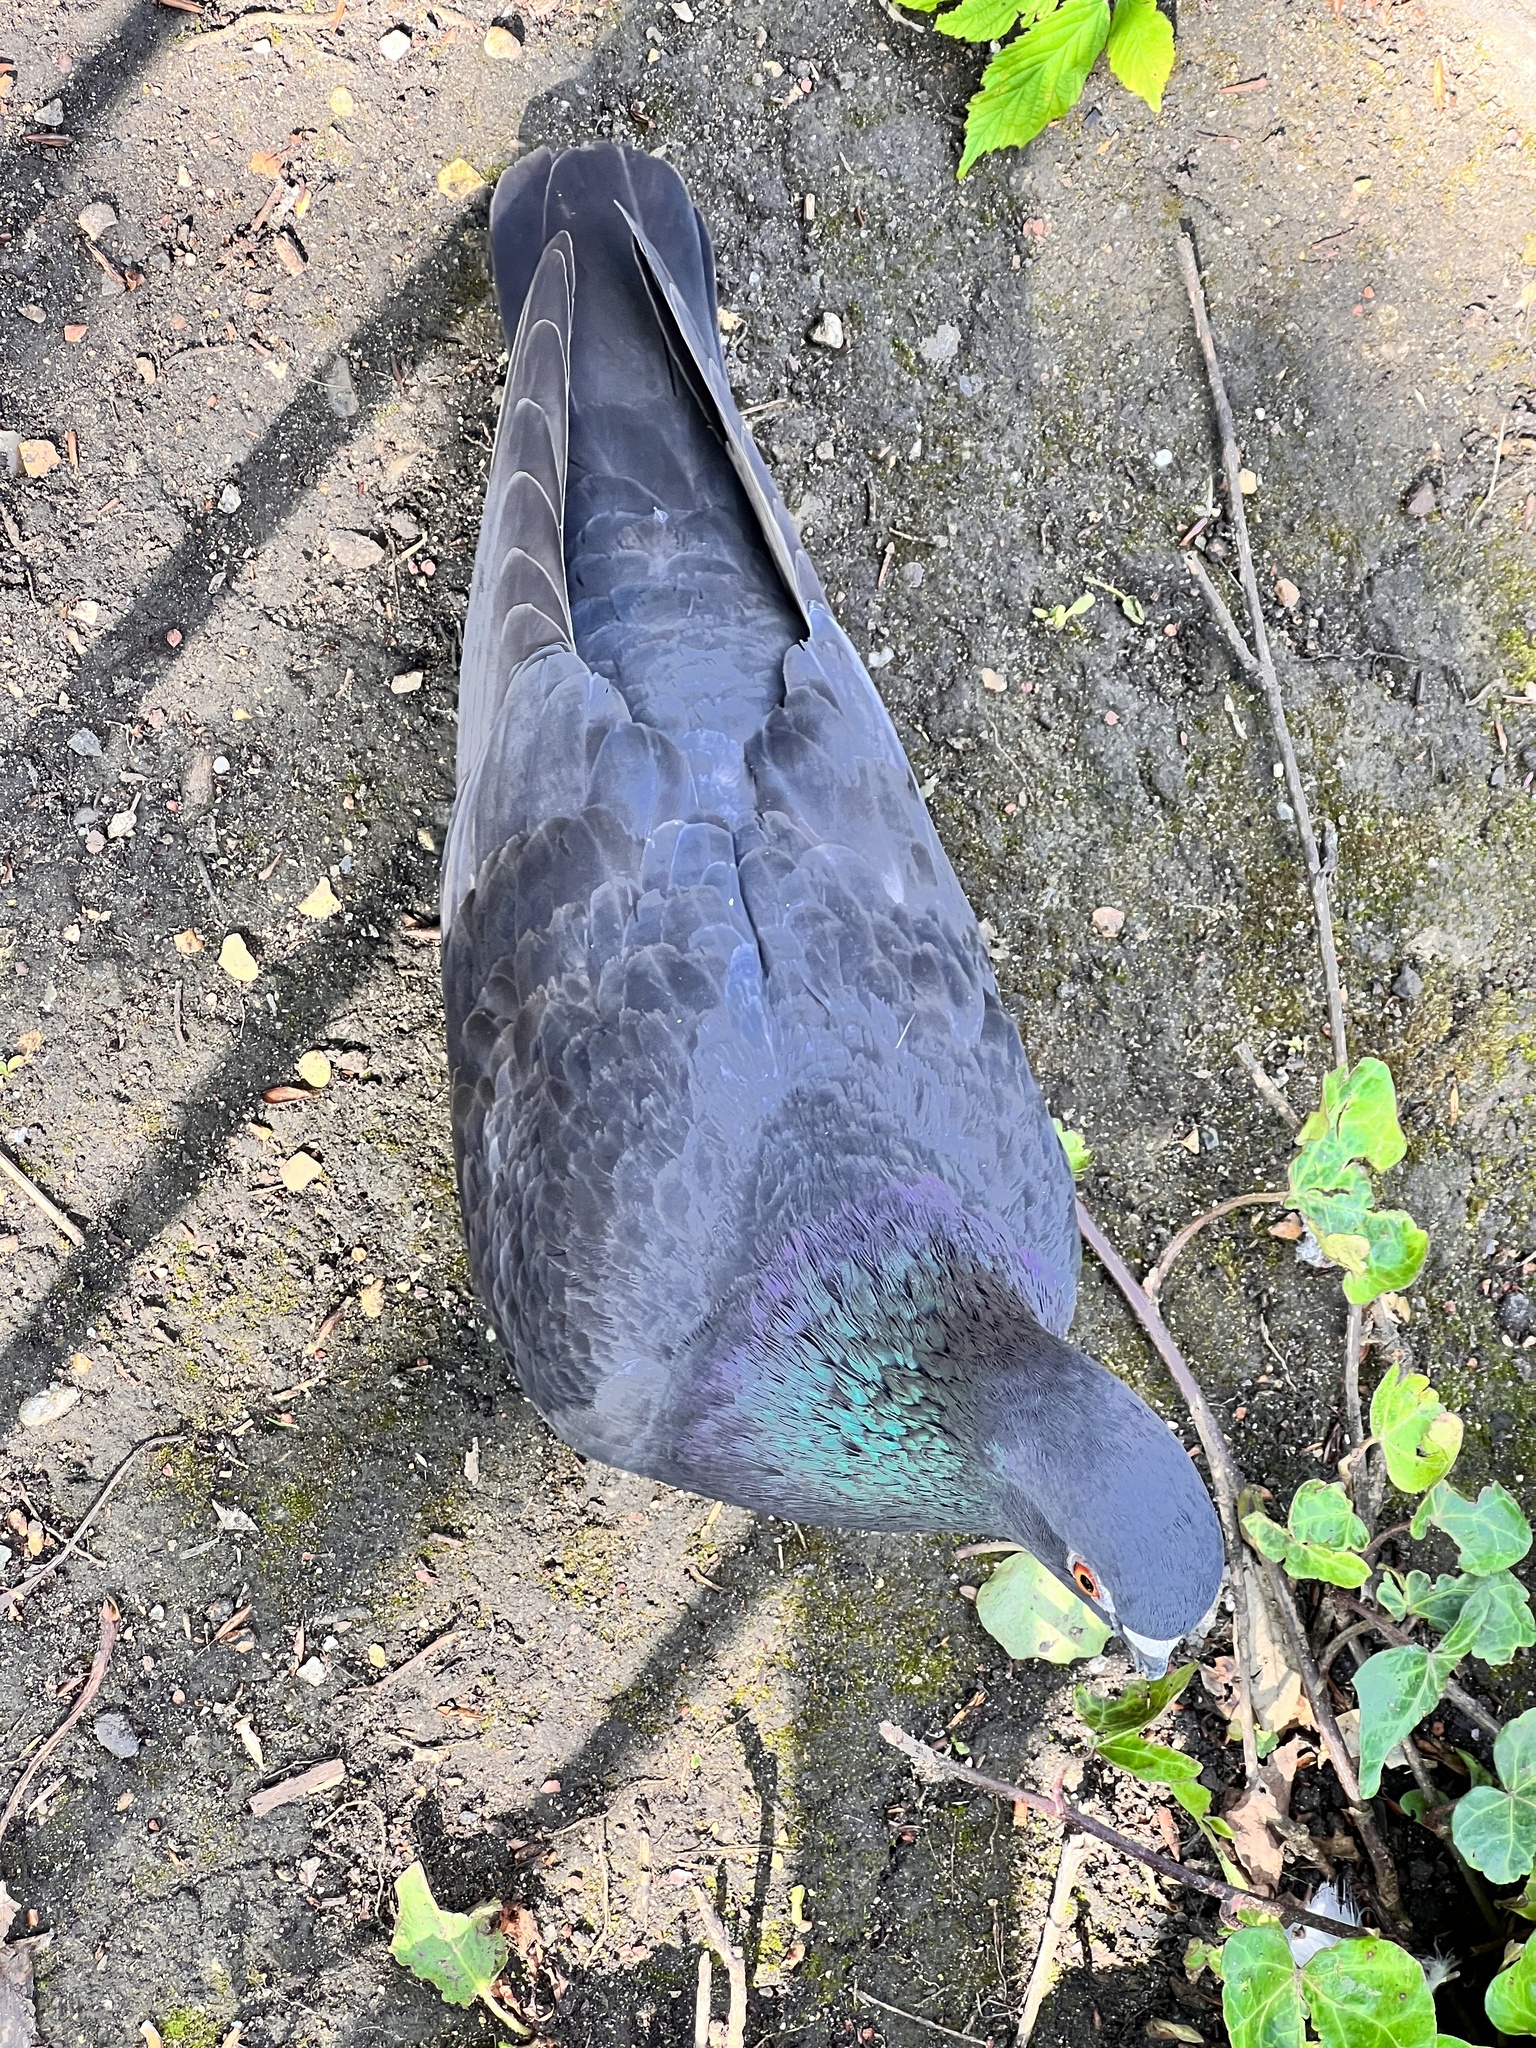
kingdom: Animalia
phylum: Chordata
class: Aves
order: Columbiformes
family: Columbidae
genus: Columba
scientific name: Columba livia
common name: Rock pigeon
